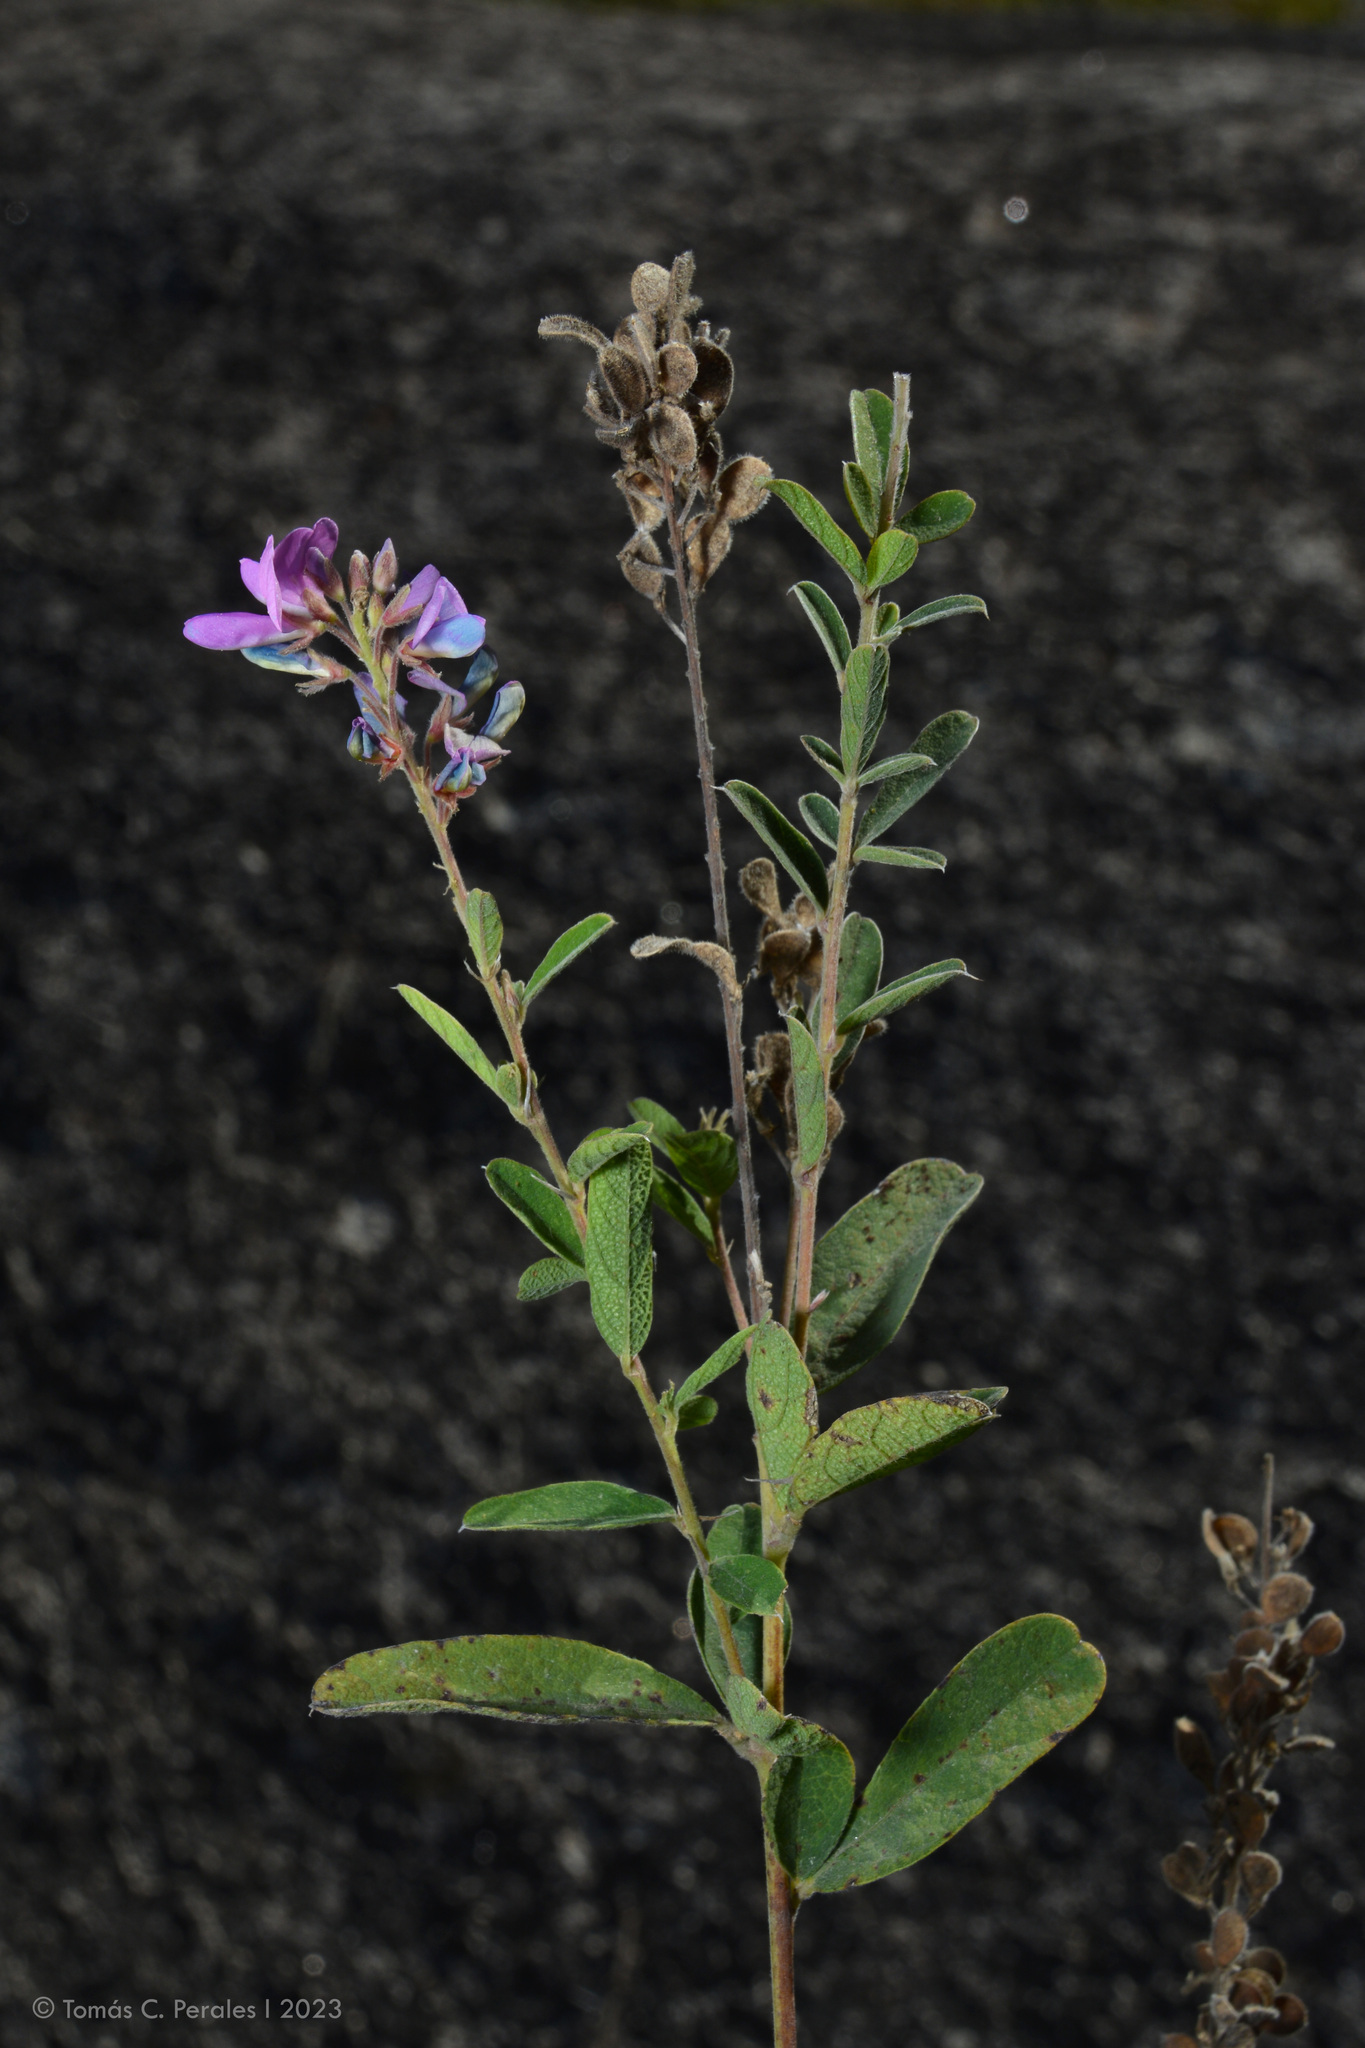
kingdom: Plantae
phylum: Tracheophyta
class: Magnoliopsida
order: Fabales
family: Fabaceae
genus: Desmodium
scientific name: Desmodium cuneatum
